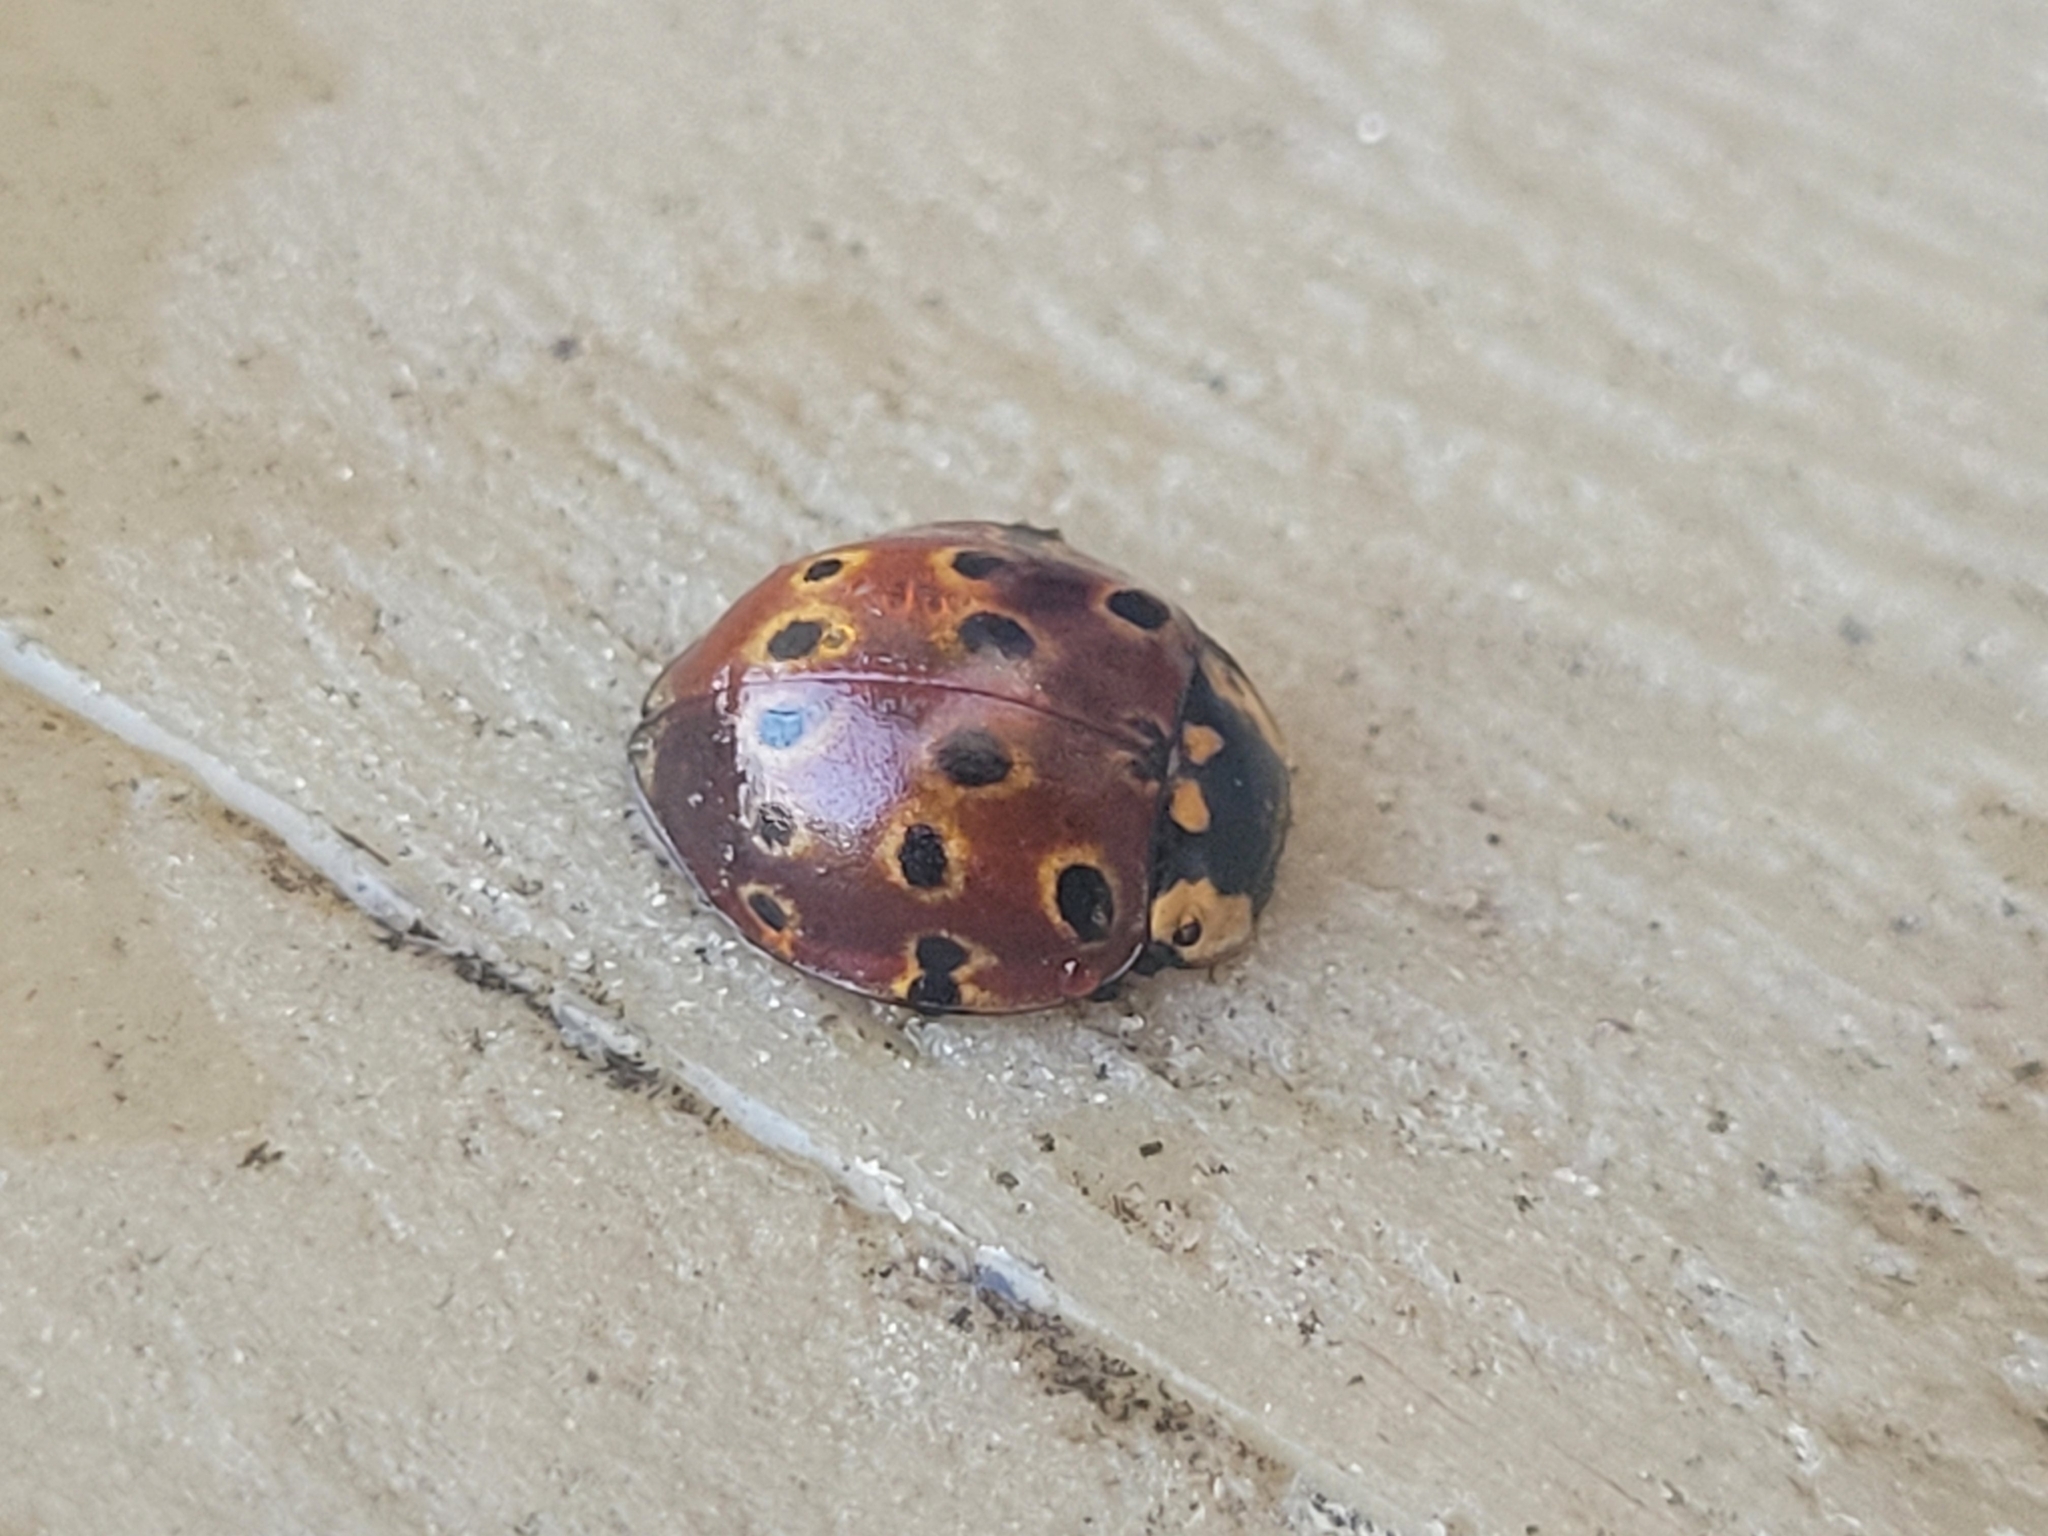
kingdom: Animalia
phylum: Arthropoda
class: Insecta
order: Coleoptera
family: Coccinellidae
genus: Anatis
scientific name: Anatis mali
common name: Eye-spotted lady beetle
